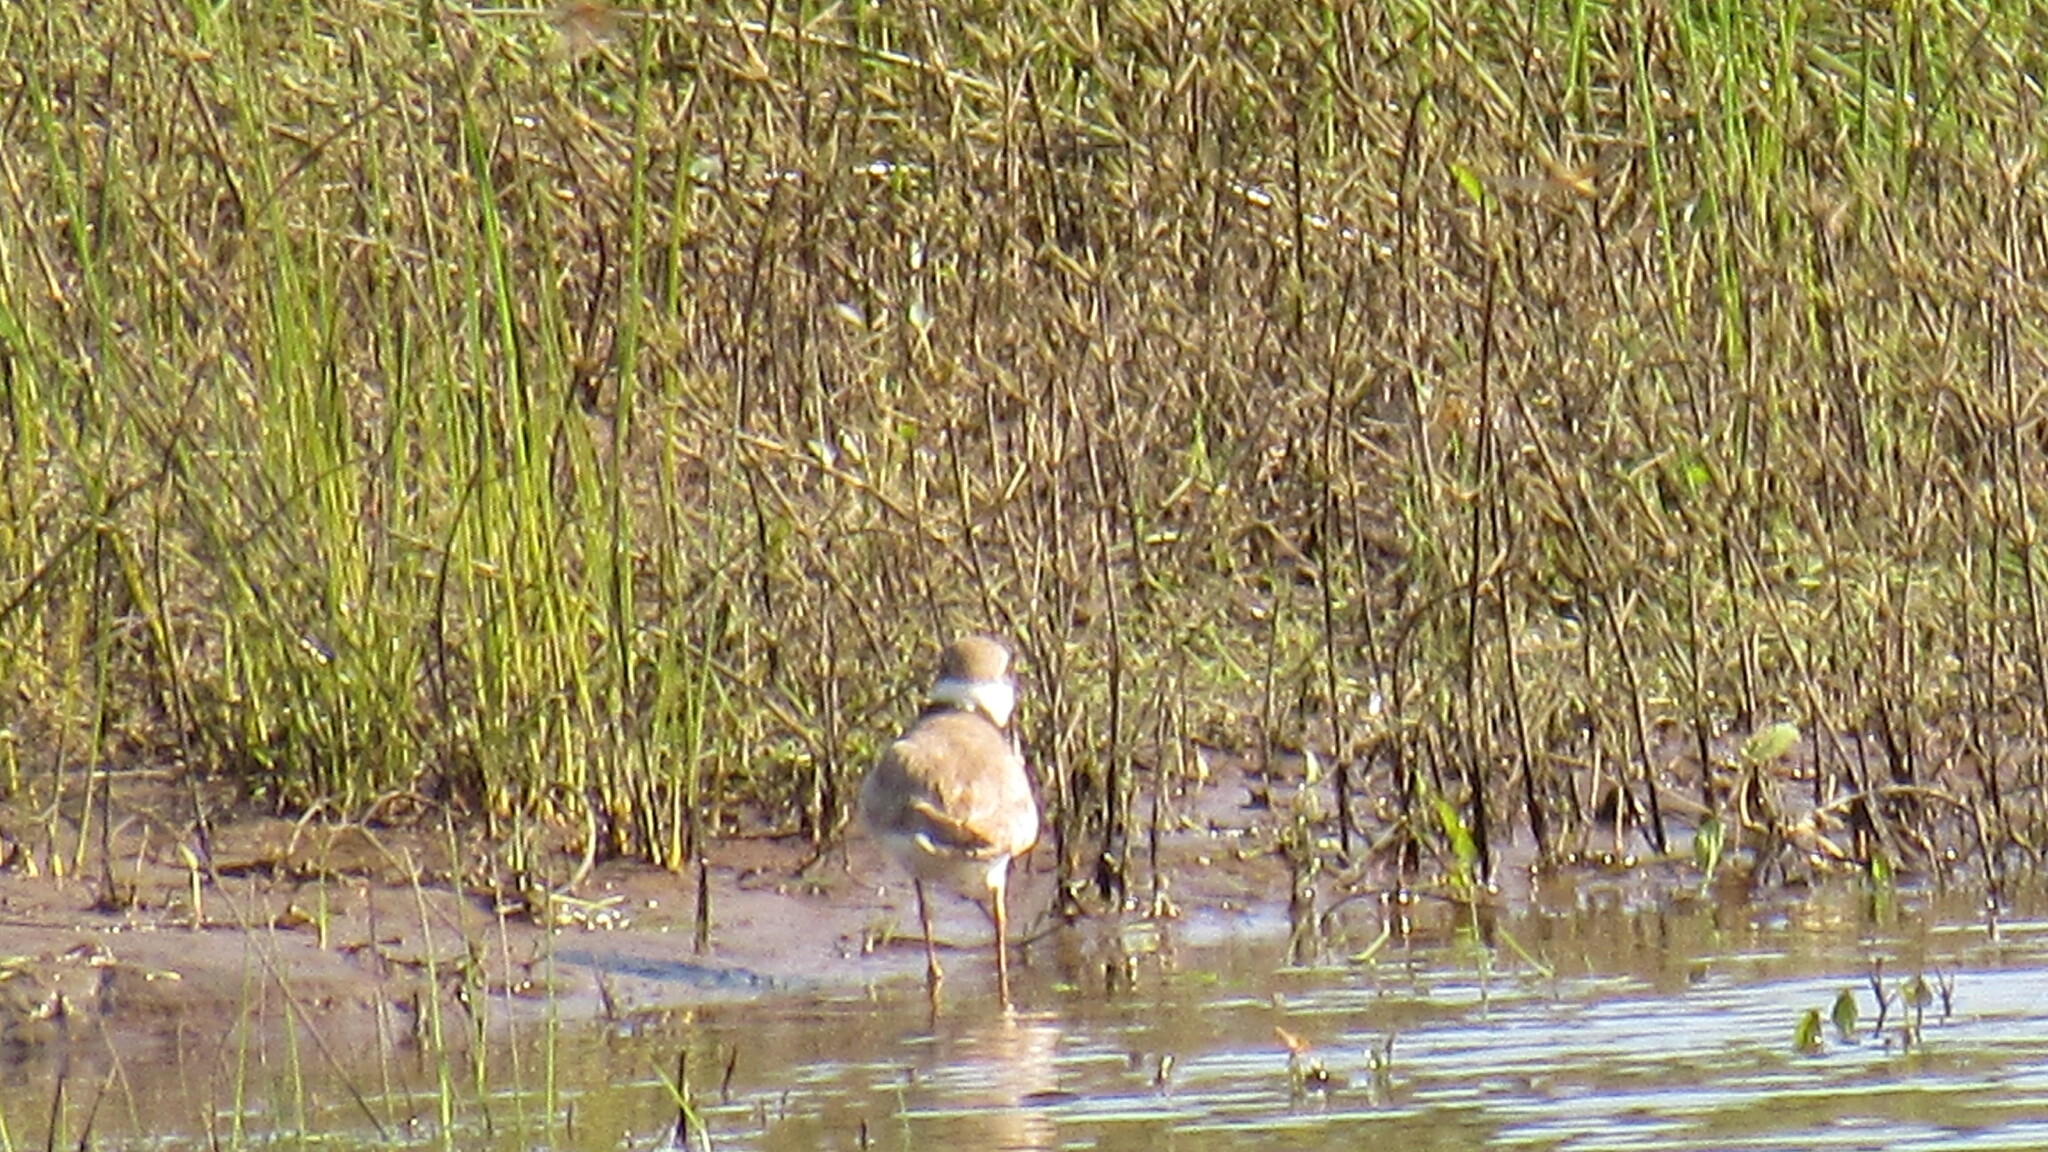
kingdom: Animalia
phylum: Chordata
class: Aves
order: Charadriiformes
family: Charadriidae
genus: Charadrius
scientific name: Charadrius dubius
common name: Little ringed plover
